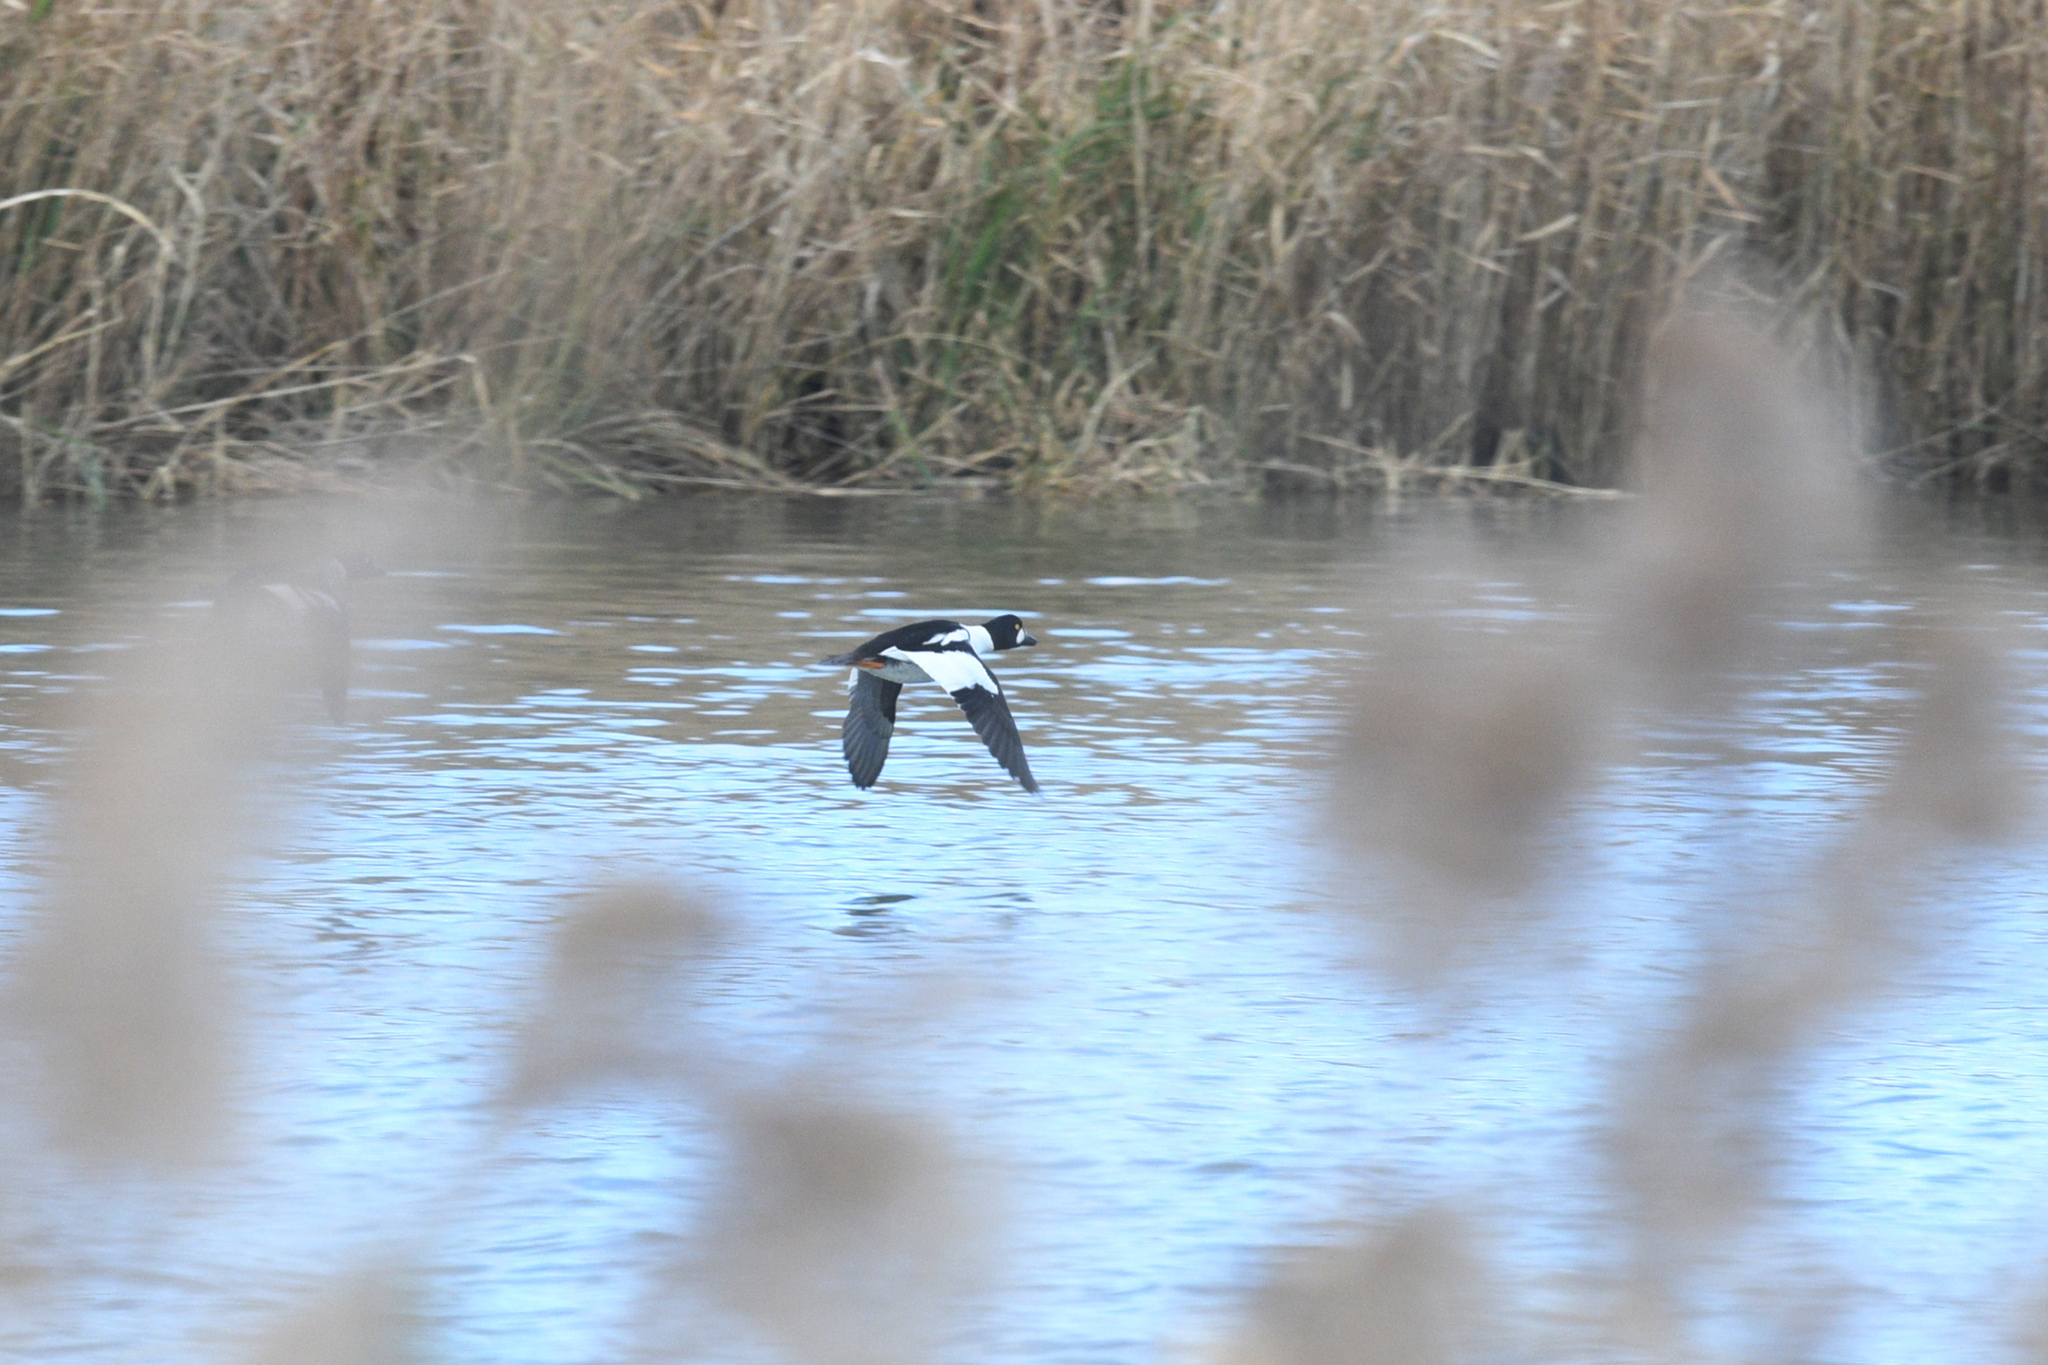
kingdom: Animalia
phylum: Chordata
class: Aves
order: Anseriformes
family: Anatidae
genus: Bucephala
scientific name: Bucephala clangula
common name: Common goldeneye
